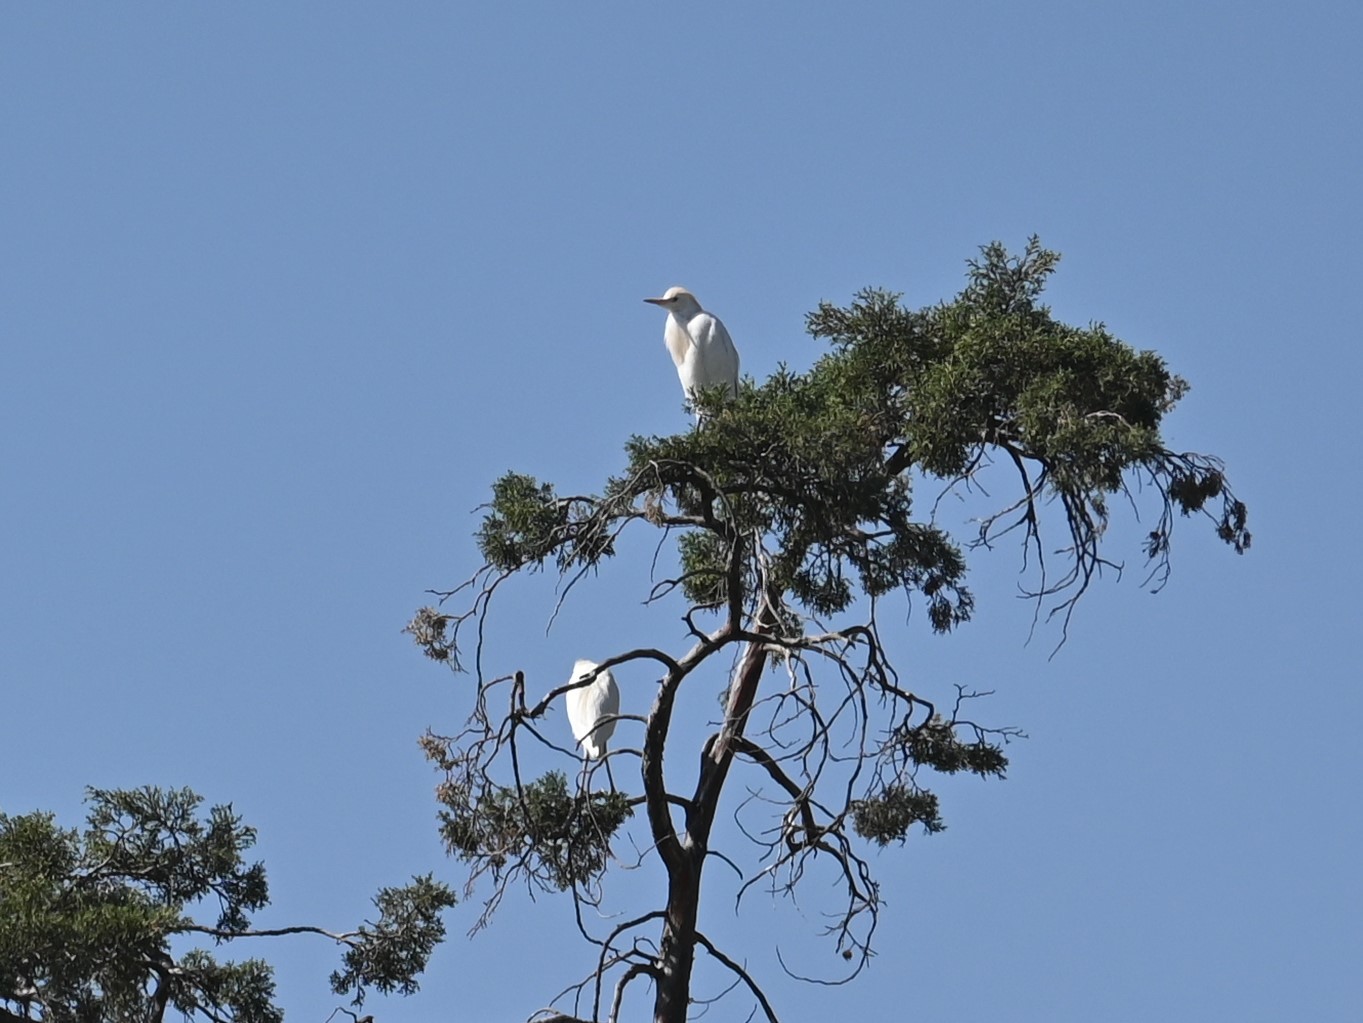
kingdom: Animalia
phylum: Chordata
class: Aves
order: Pelecaniformes
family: Ardeidae
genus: Bubulcus
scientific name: Bubulcus ibis
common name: Cattle egret
